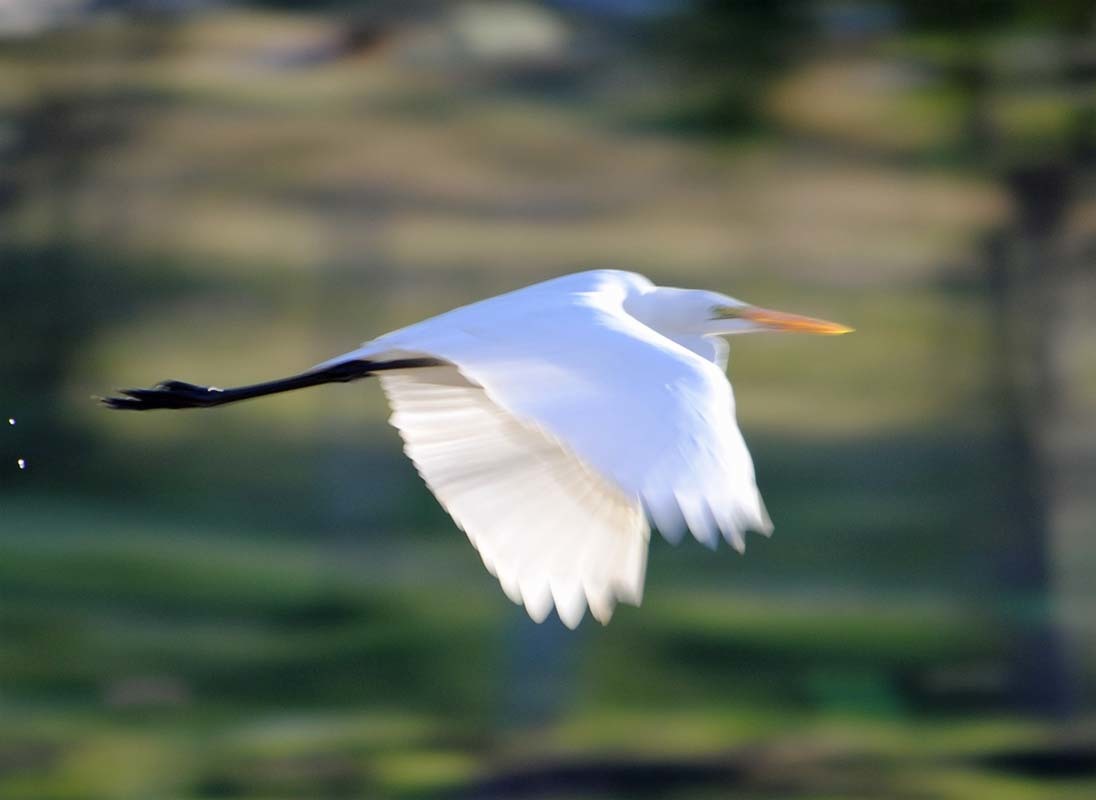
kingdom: Animalia
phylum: Chordata
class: Aves
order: Pelecaniformes
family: Ardeidae
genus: Ardea
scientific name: Ardea alba
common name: Great egret
